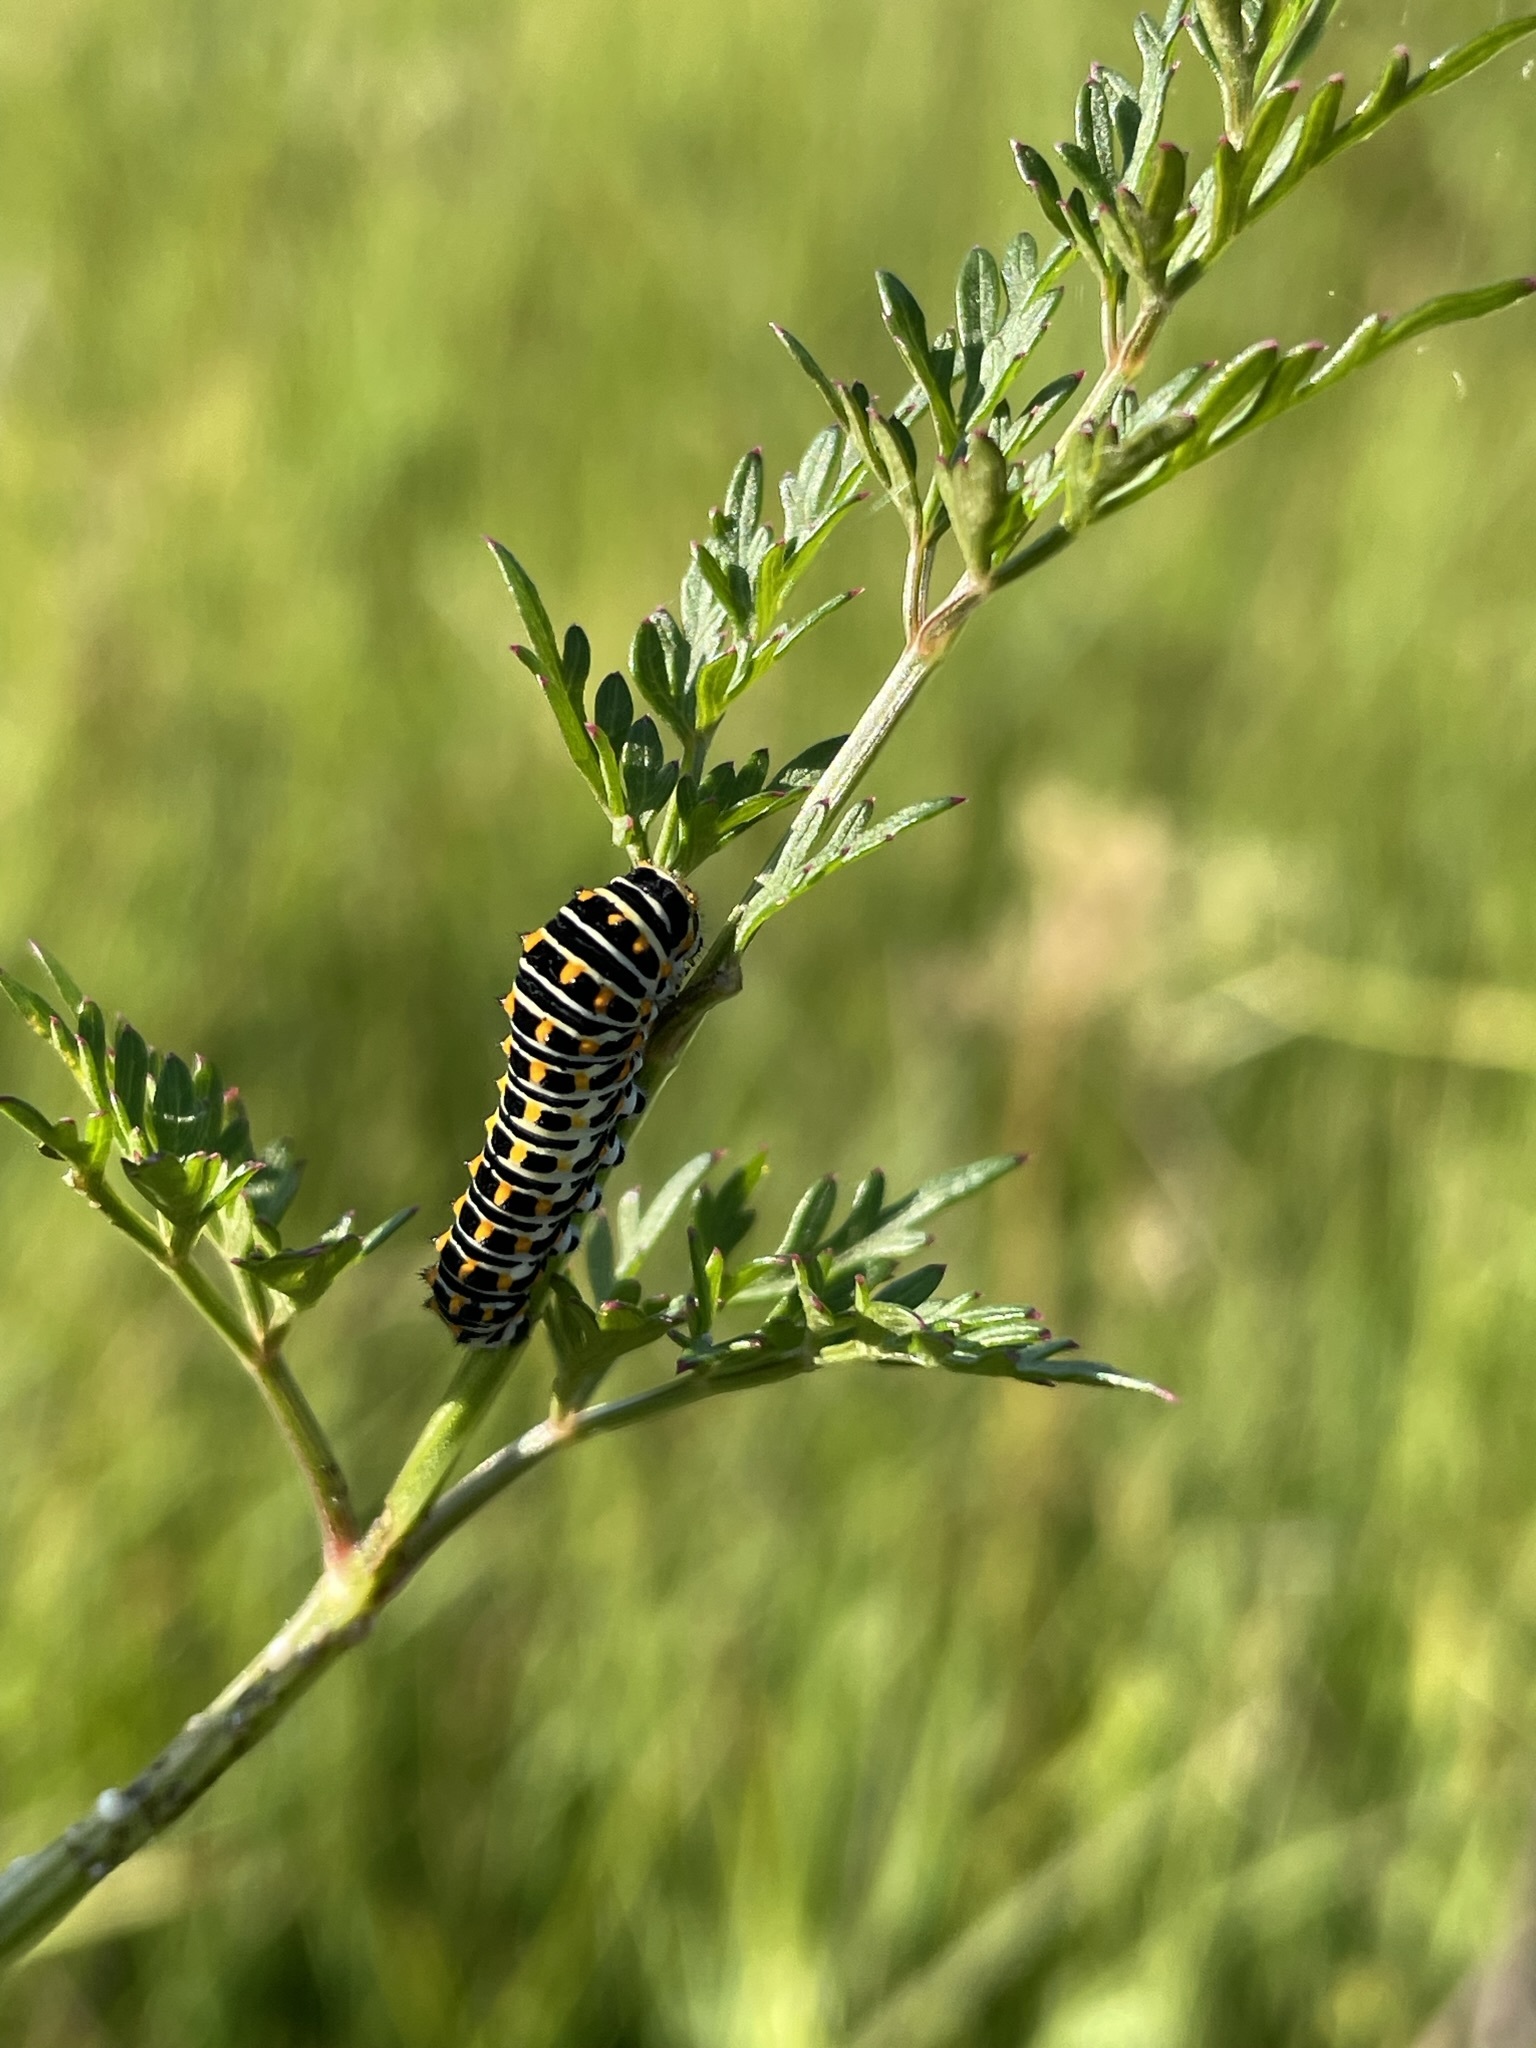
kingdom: Animalia
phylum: Arthropoda
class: Insecta
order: Lepidoptera
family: Papilionidae
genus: Papilio
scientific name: Papilio machaon
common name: Swallowtail
